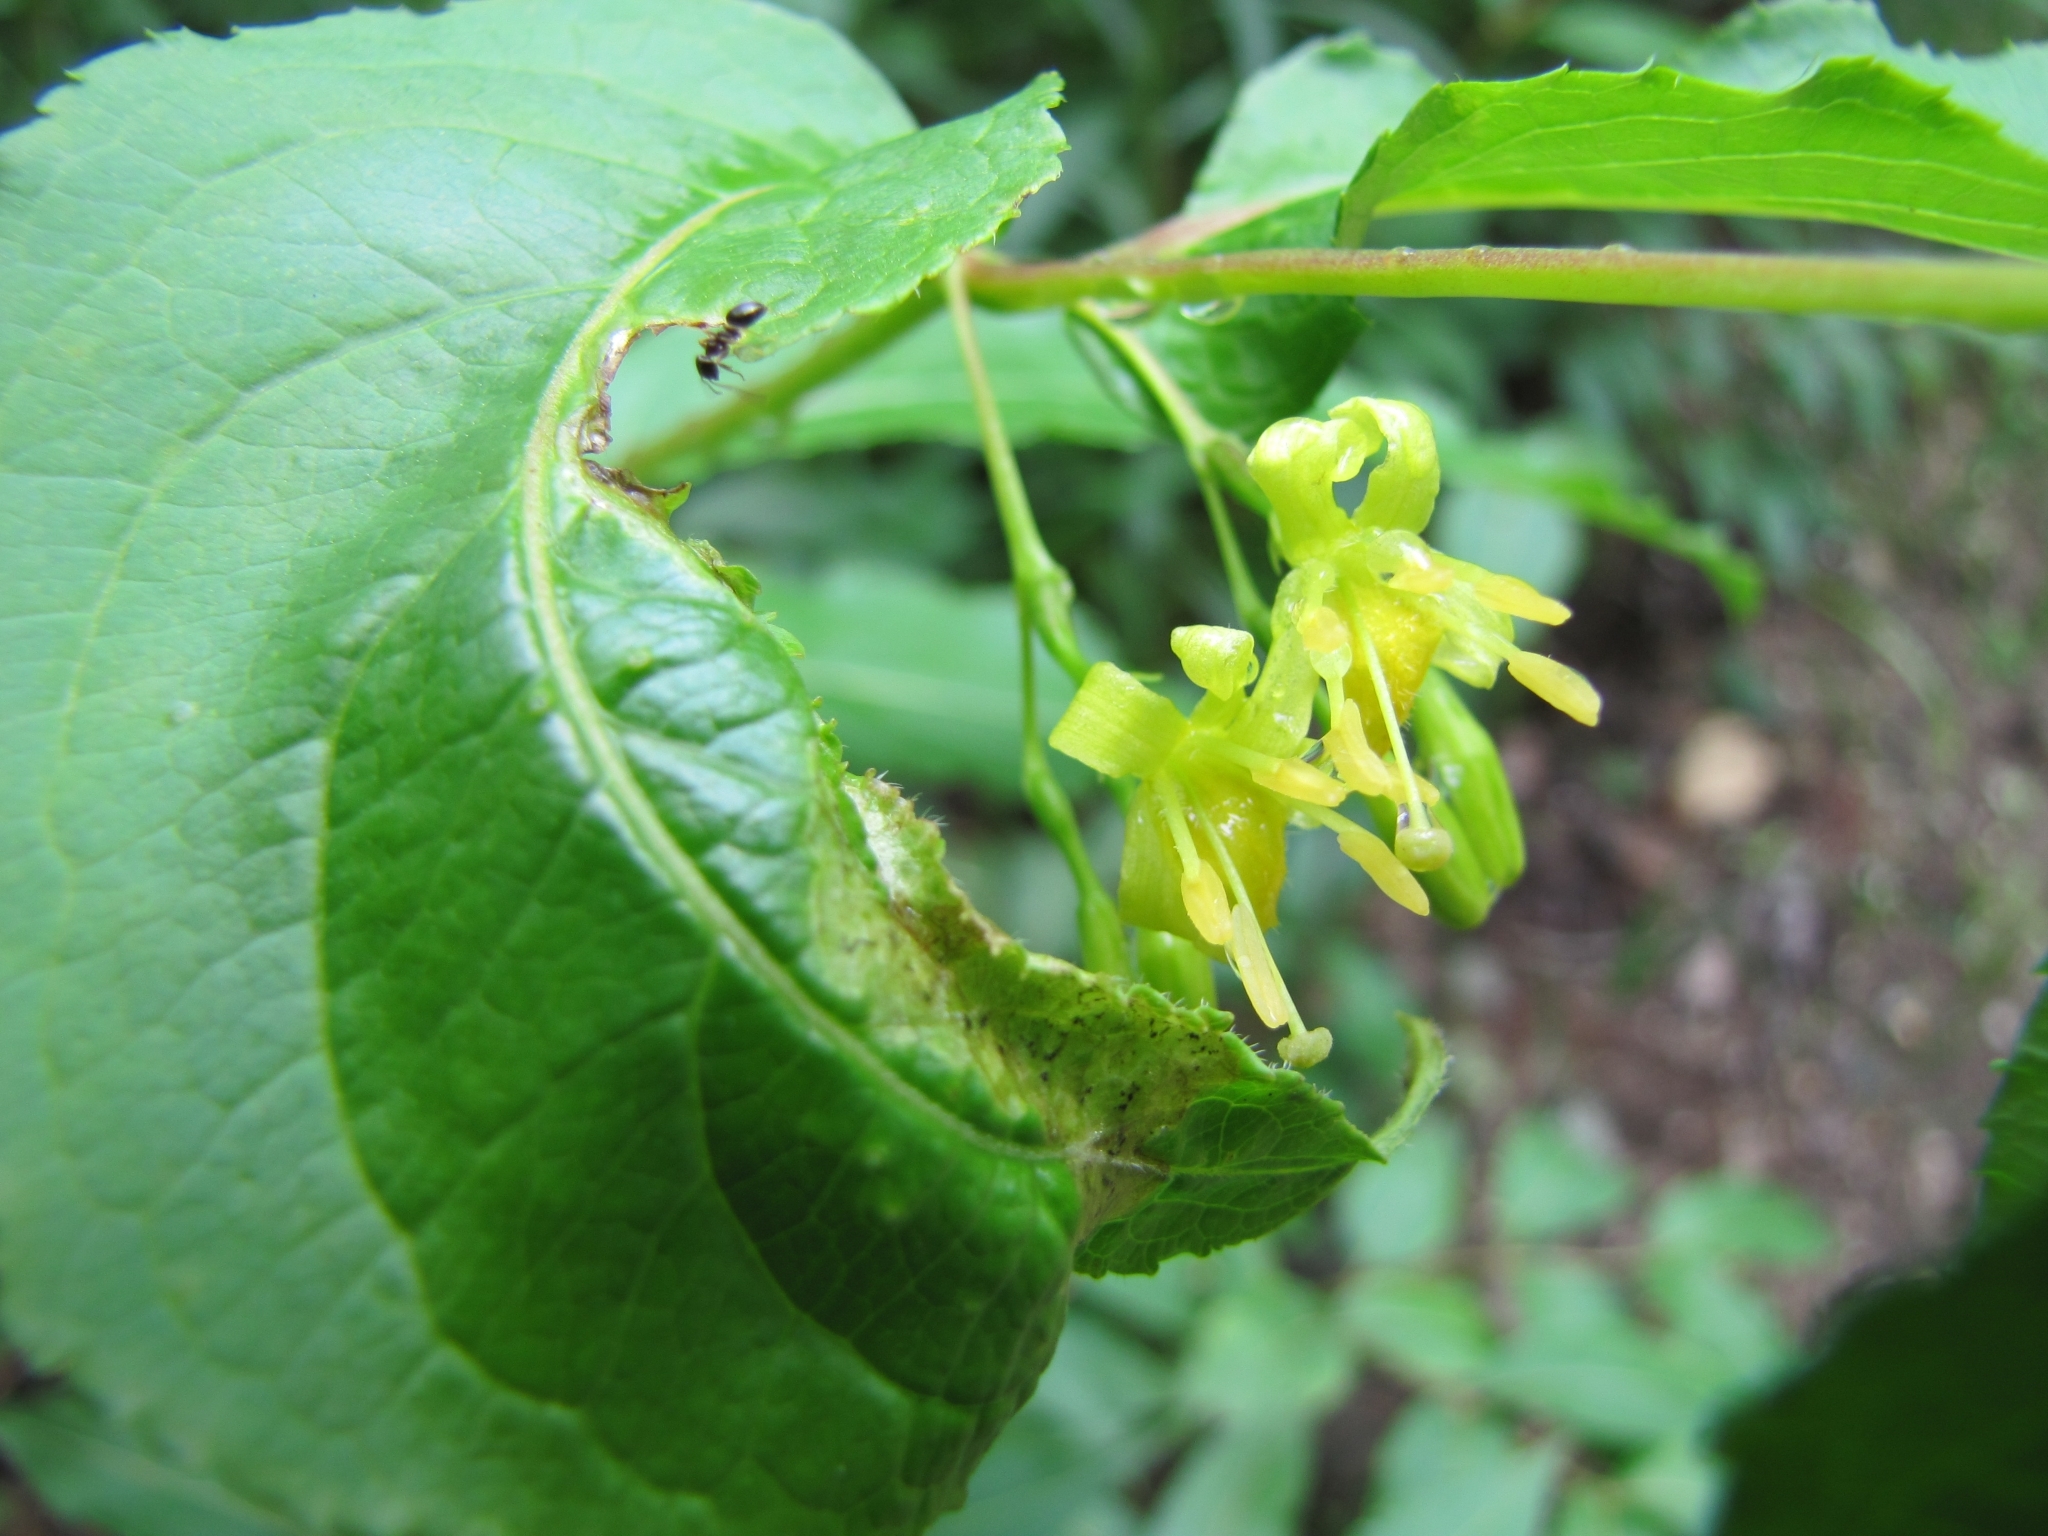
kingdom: Plantae
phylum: Tracheophyta
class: Magnoliopsida
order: Dipsacales
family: Caprifoliaceae
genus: Diervilla
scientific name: Diervilla lonicera
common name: Bush-honeysuckle
